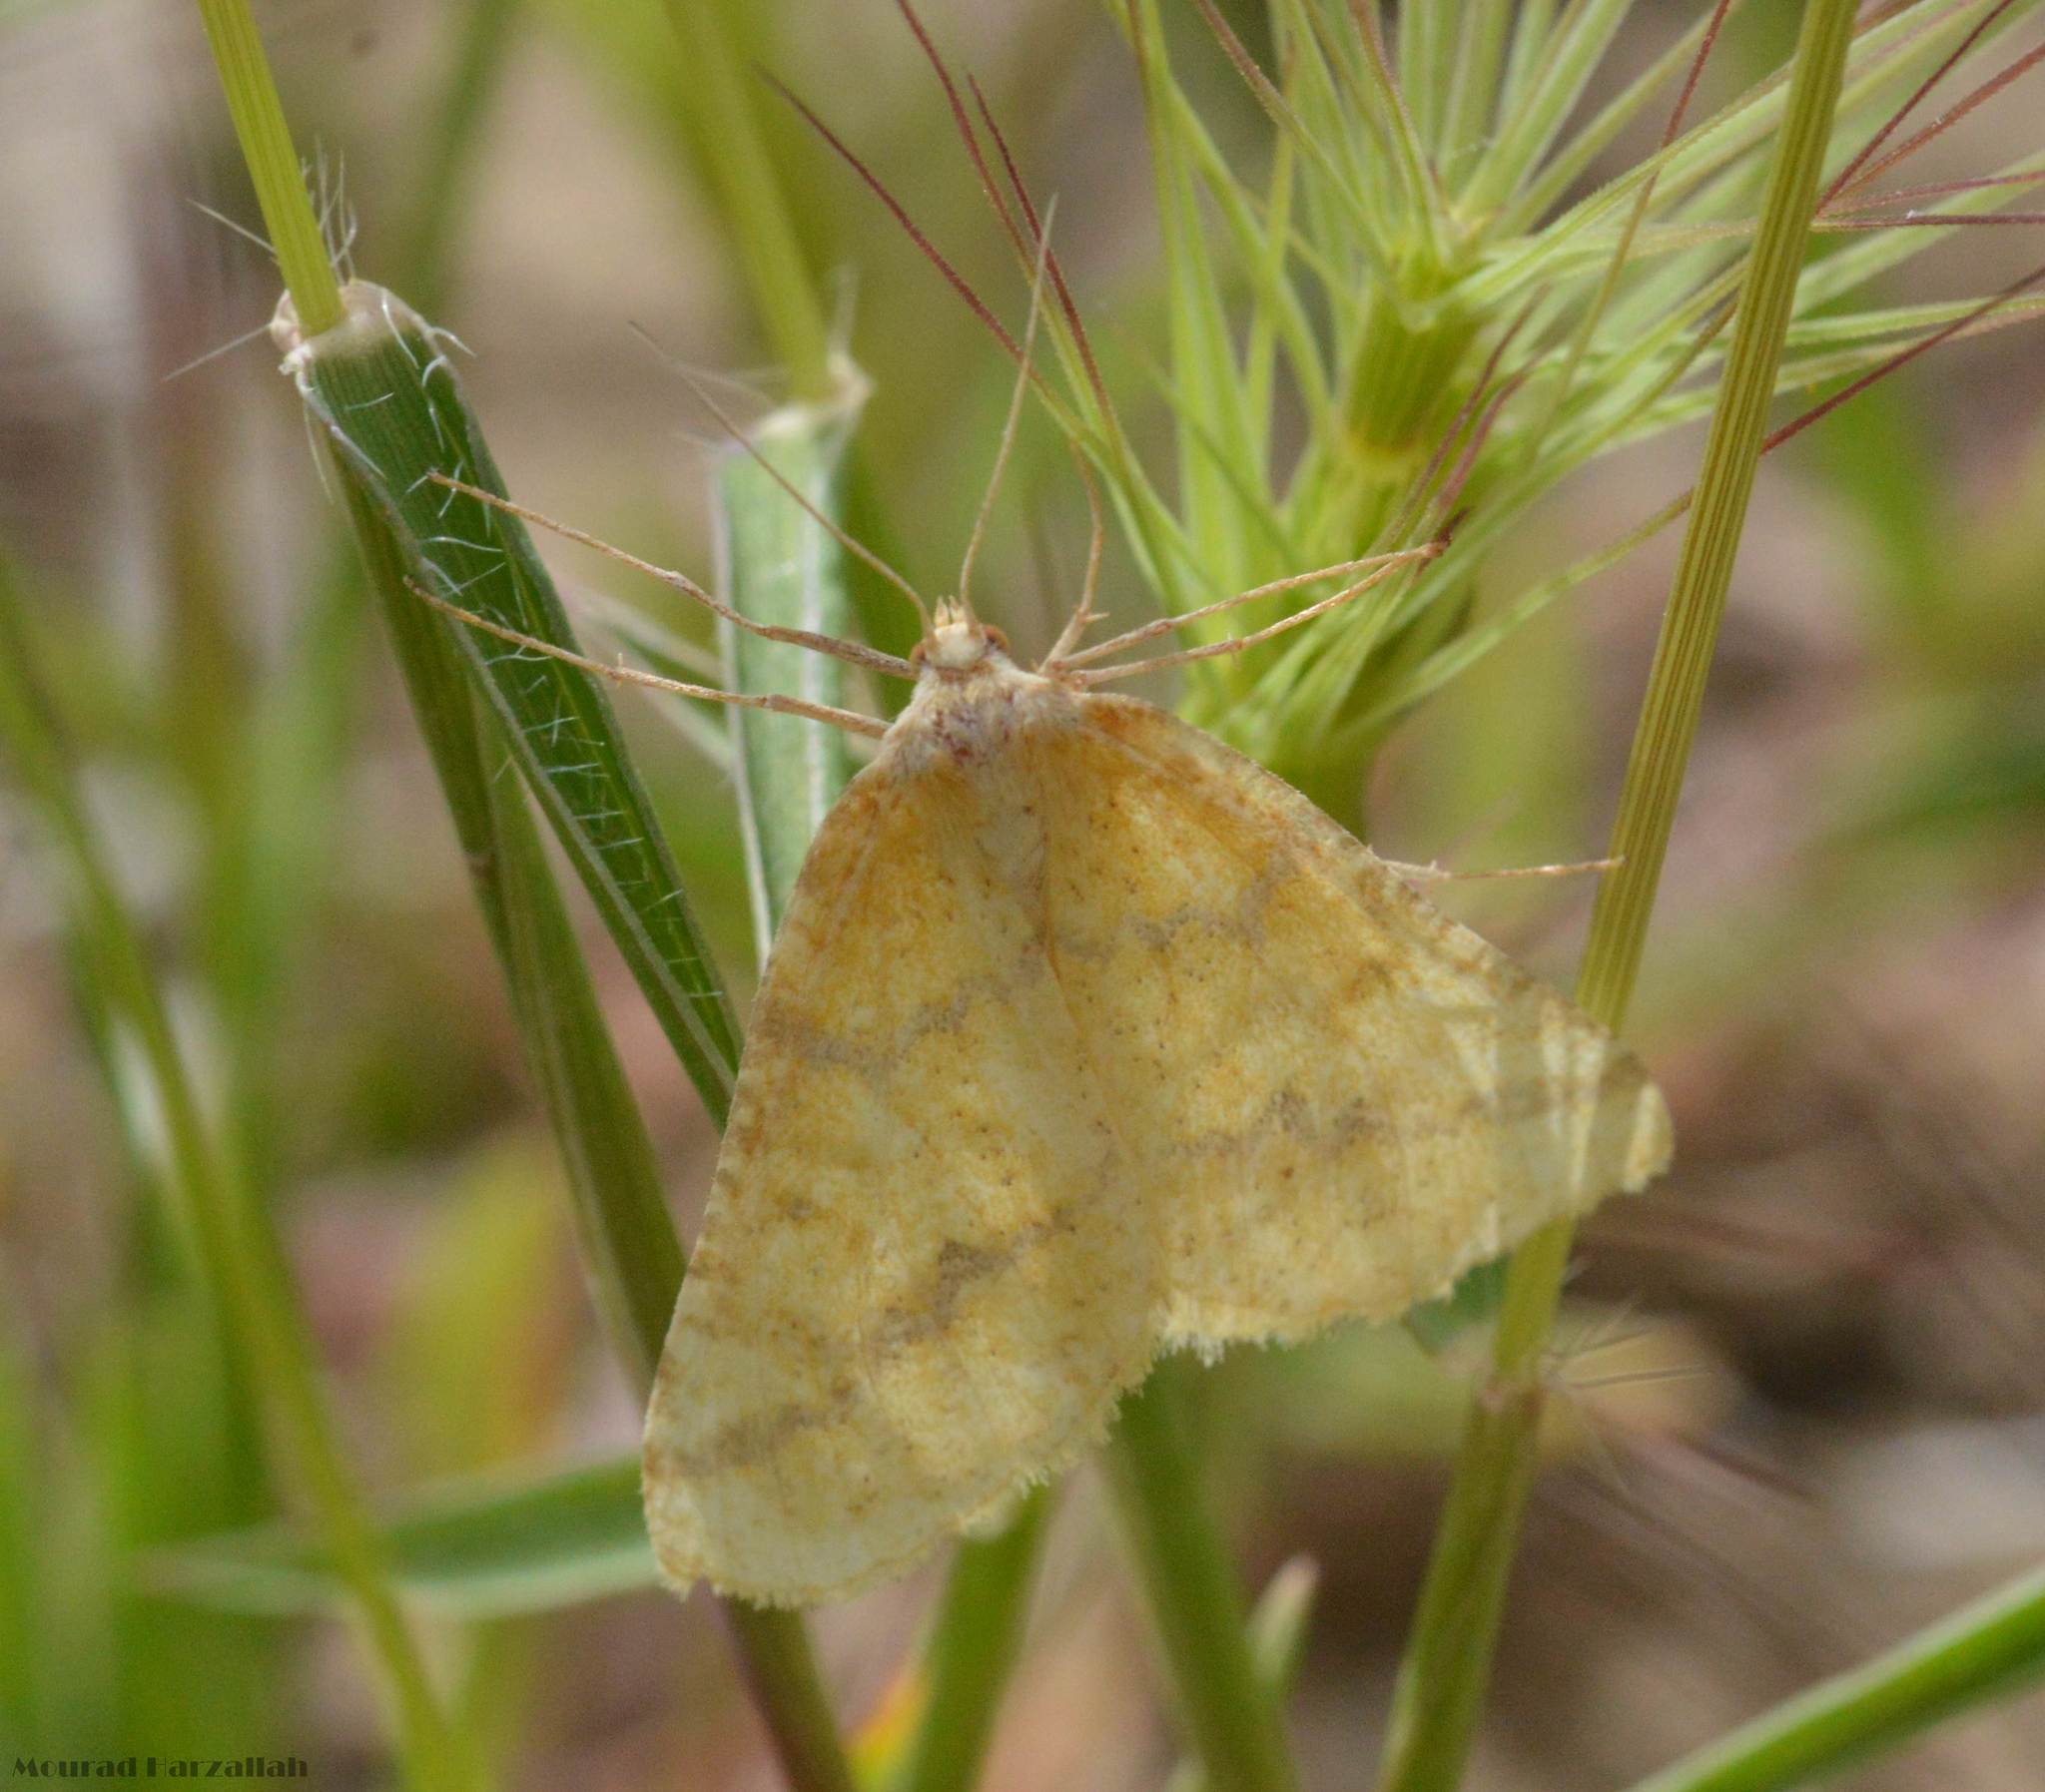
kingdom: Animalia
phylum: Arthropoda
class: Insecta
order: Lepidoptera
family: Geometridae
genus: Aspitates
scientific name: Aspitates ochrearia
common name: Yellow belle
